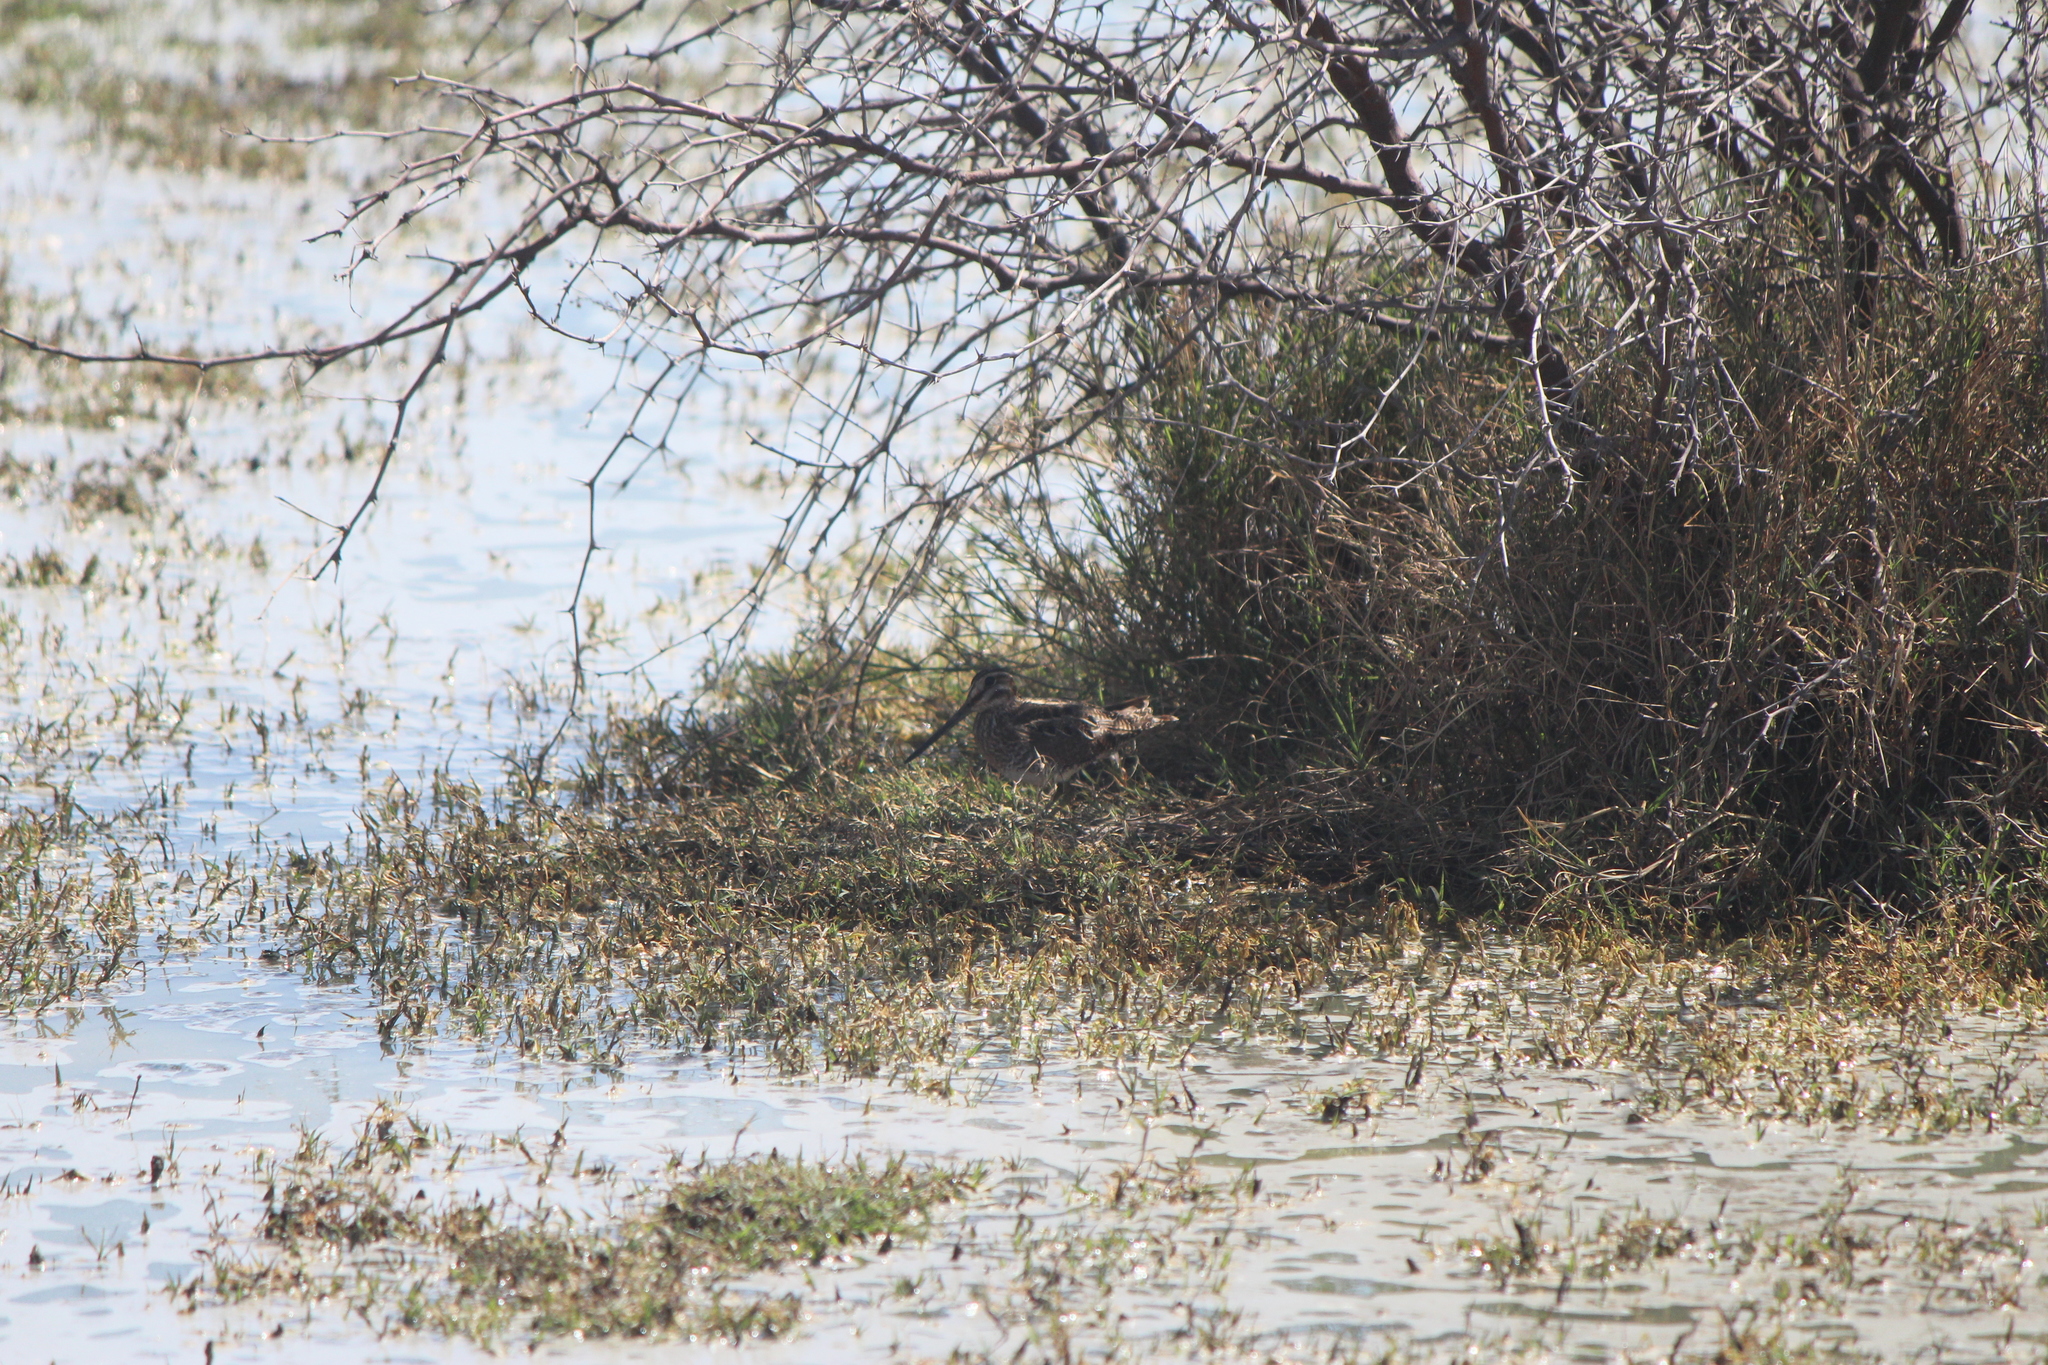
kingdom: Animalia
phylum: Chordata
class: Aves
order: Charadriiformes
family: Scolopacidae
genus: Gallinago
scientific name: Gallinago delicata
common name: Wilson's snipe
